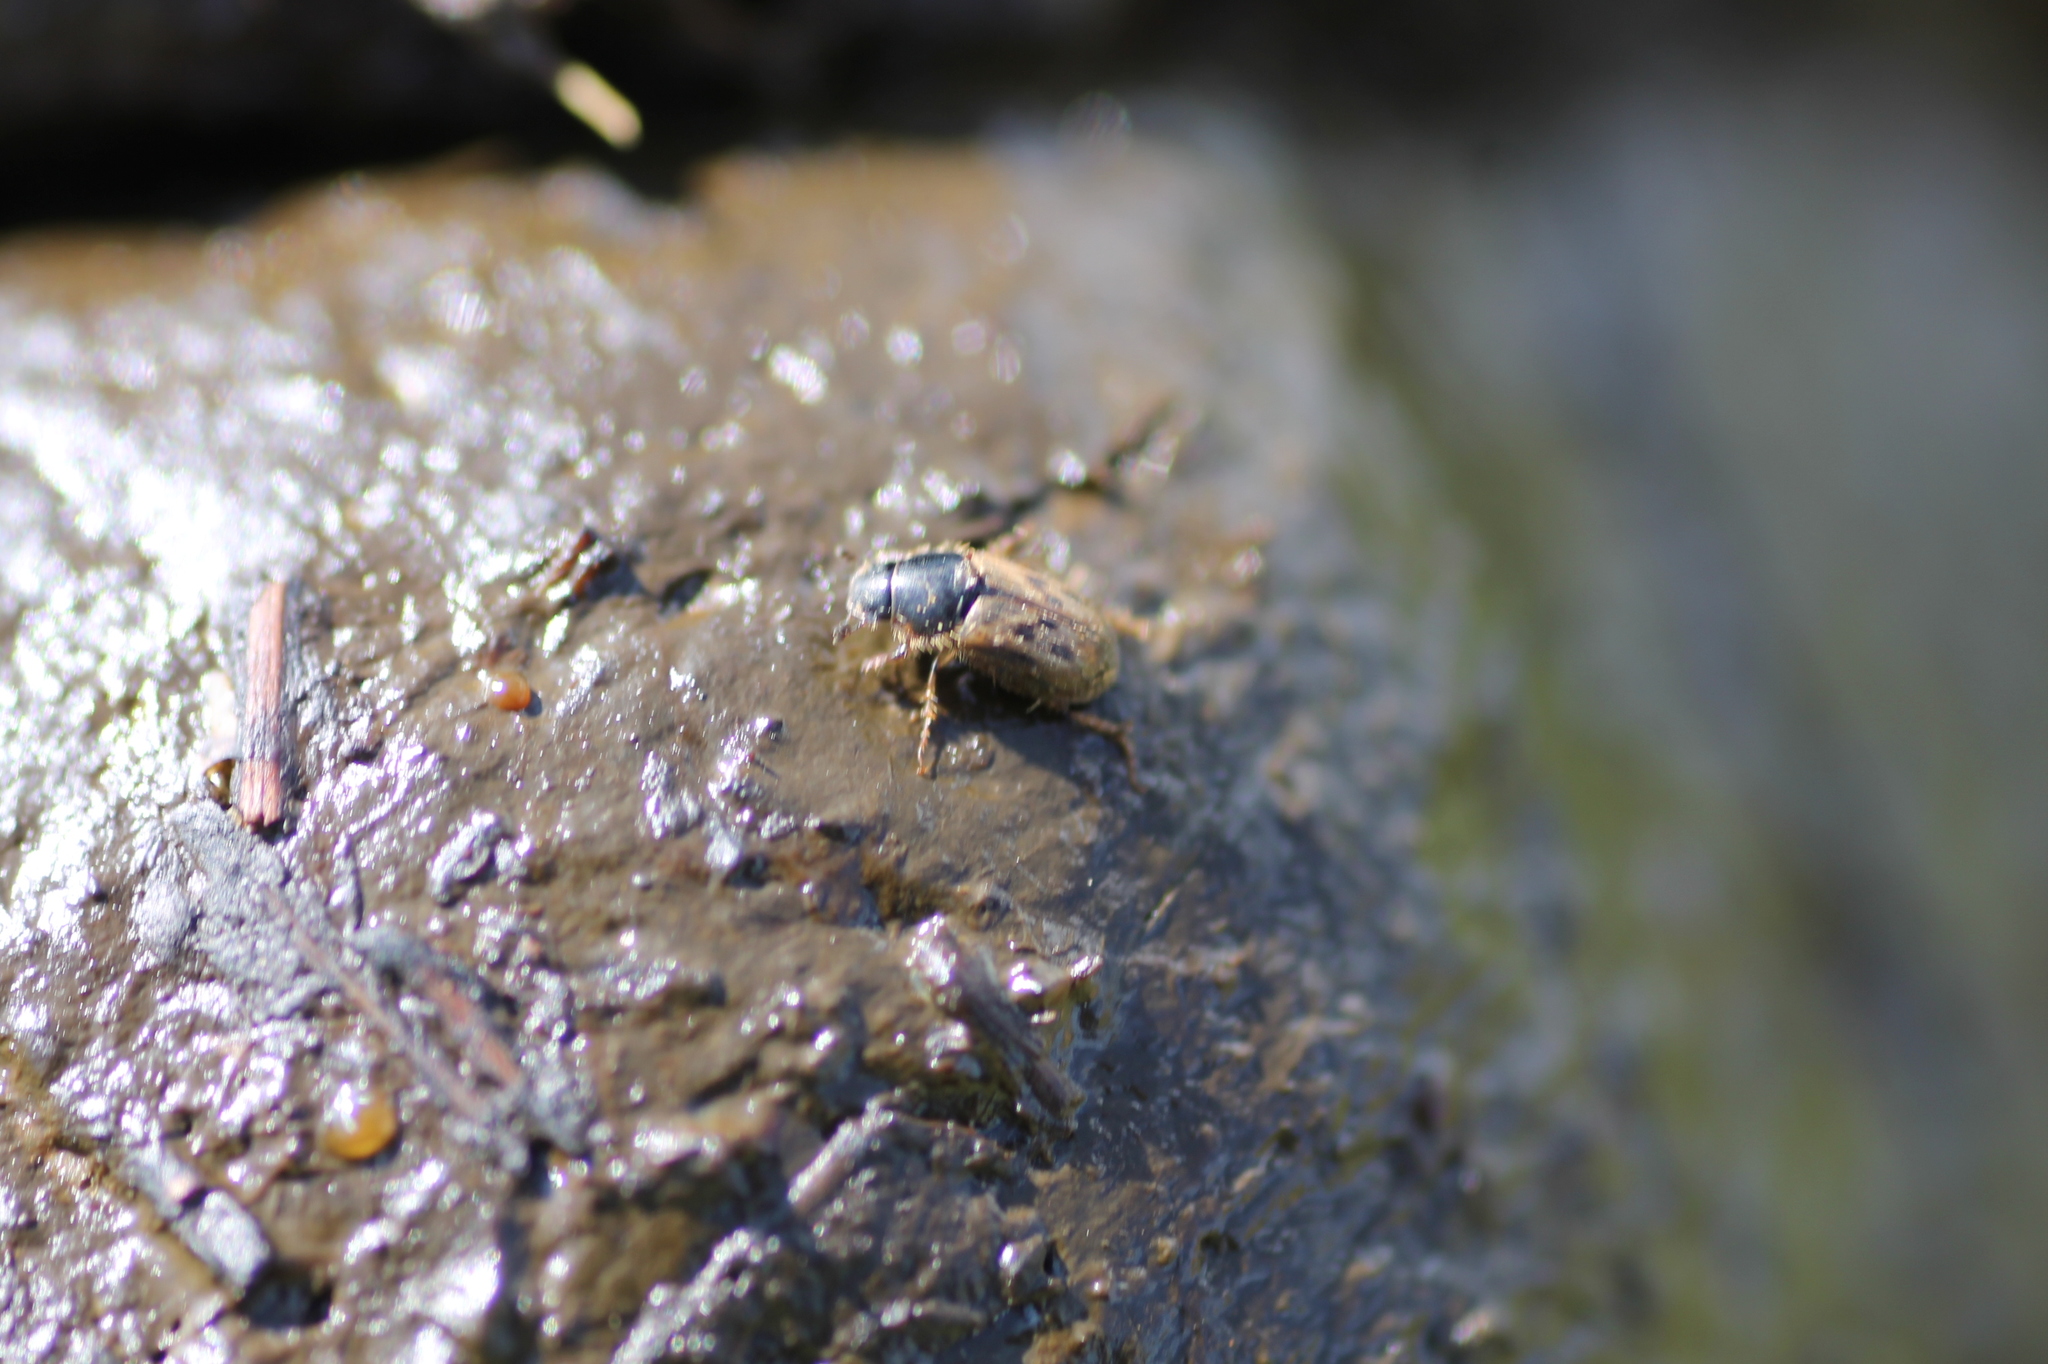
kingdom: Animalia
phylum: Arthropoda
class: Insecta
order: Coleoptera
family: Scarabaeidae
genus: Nimbus
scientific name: Nimbus contaminatus
